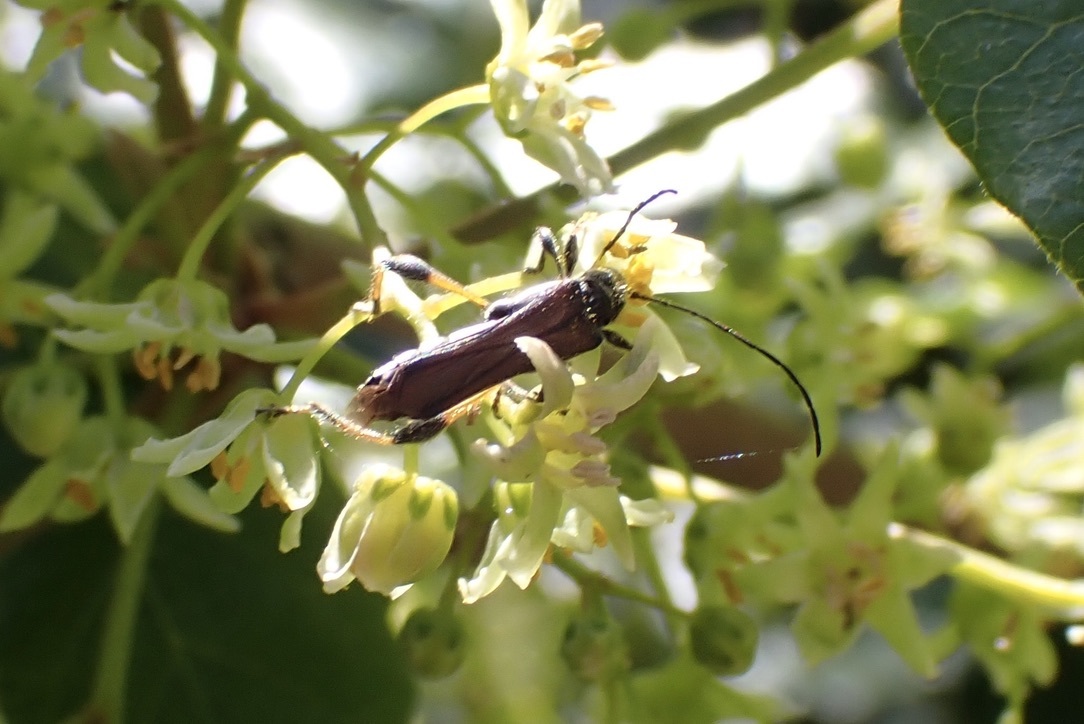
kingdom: Animalia
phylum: Arthropoda
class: Insecta
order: Coleoptera
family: Cerambycidae
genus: Callimoxys
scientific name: Callimoxys fuscipennis
